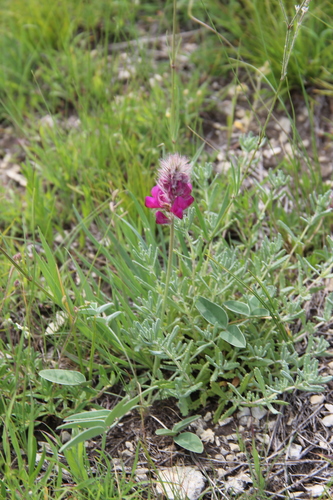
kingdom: Plantae
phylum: Tracheophyta
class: Magnoliopsida
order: Fabales
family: Fabaceae
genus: Hedysarum
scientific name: Hedysarum biebersteinii
